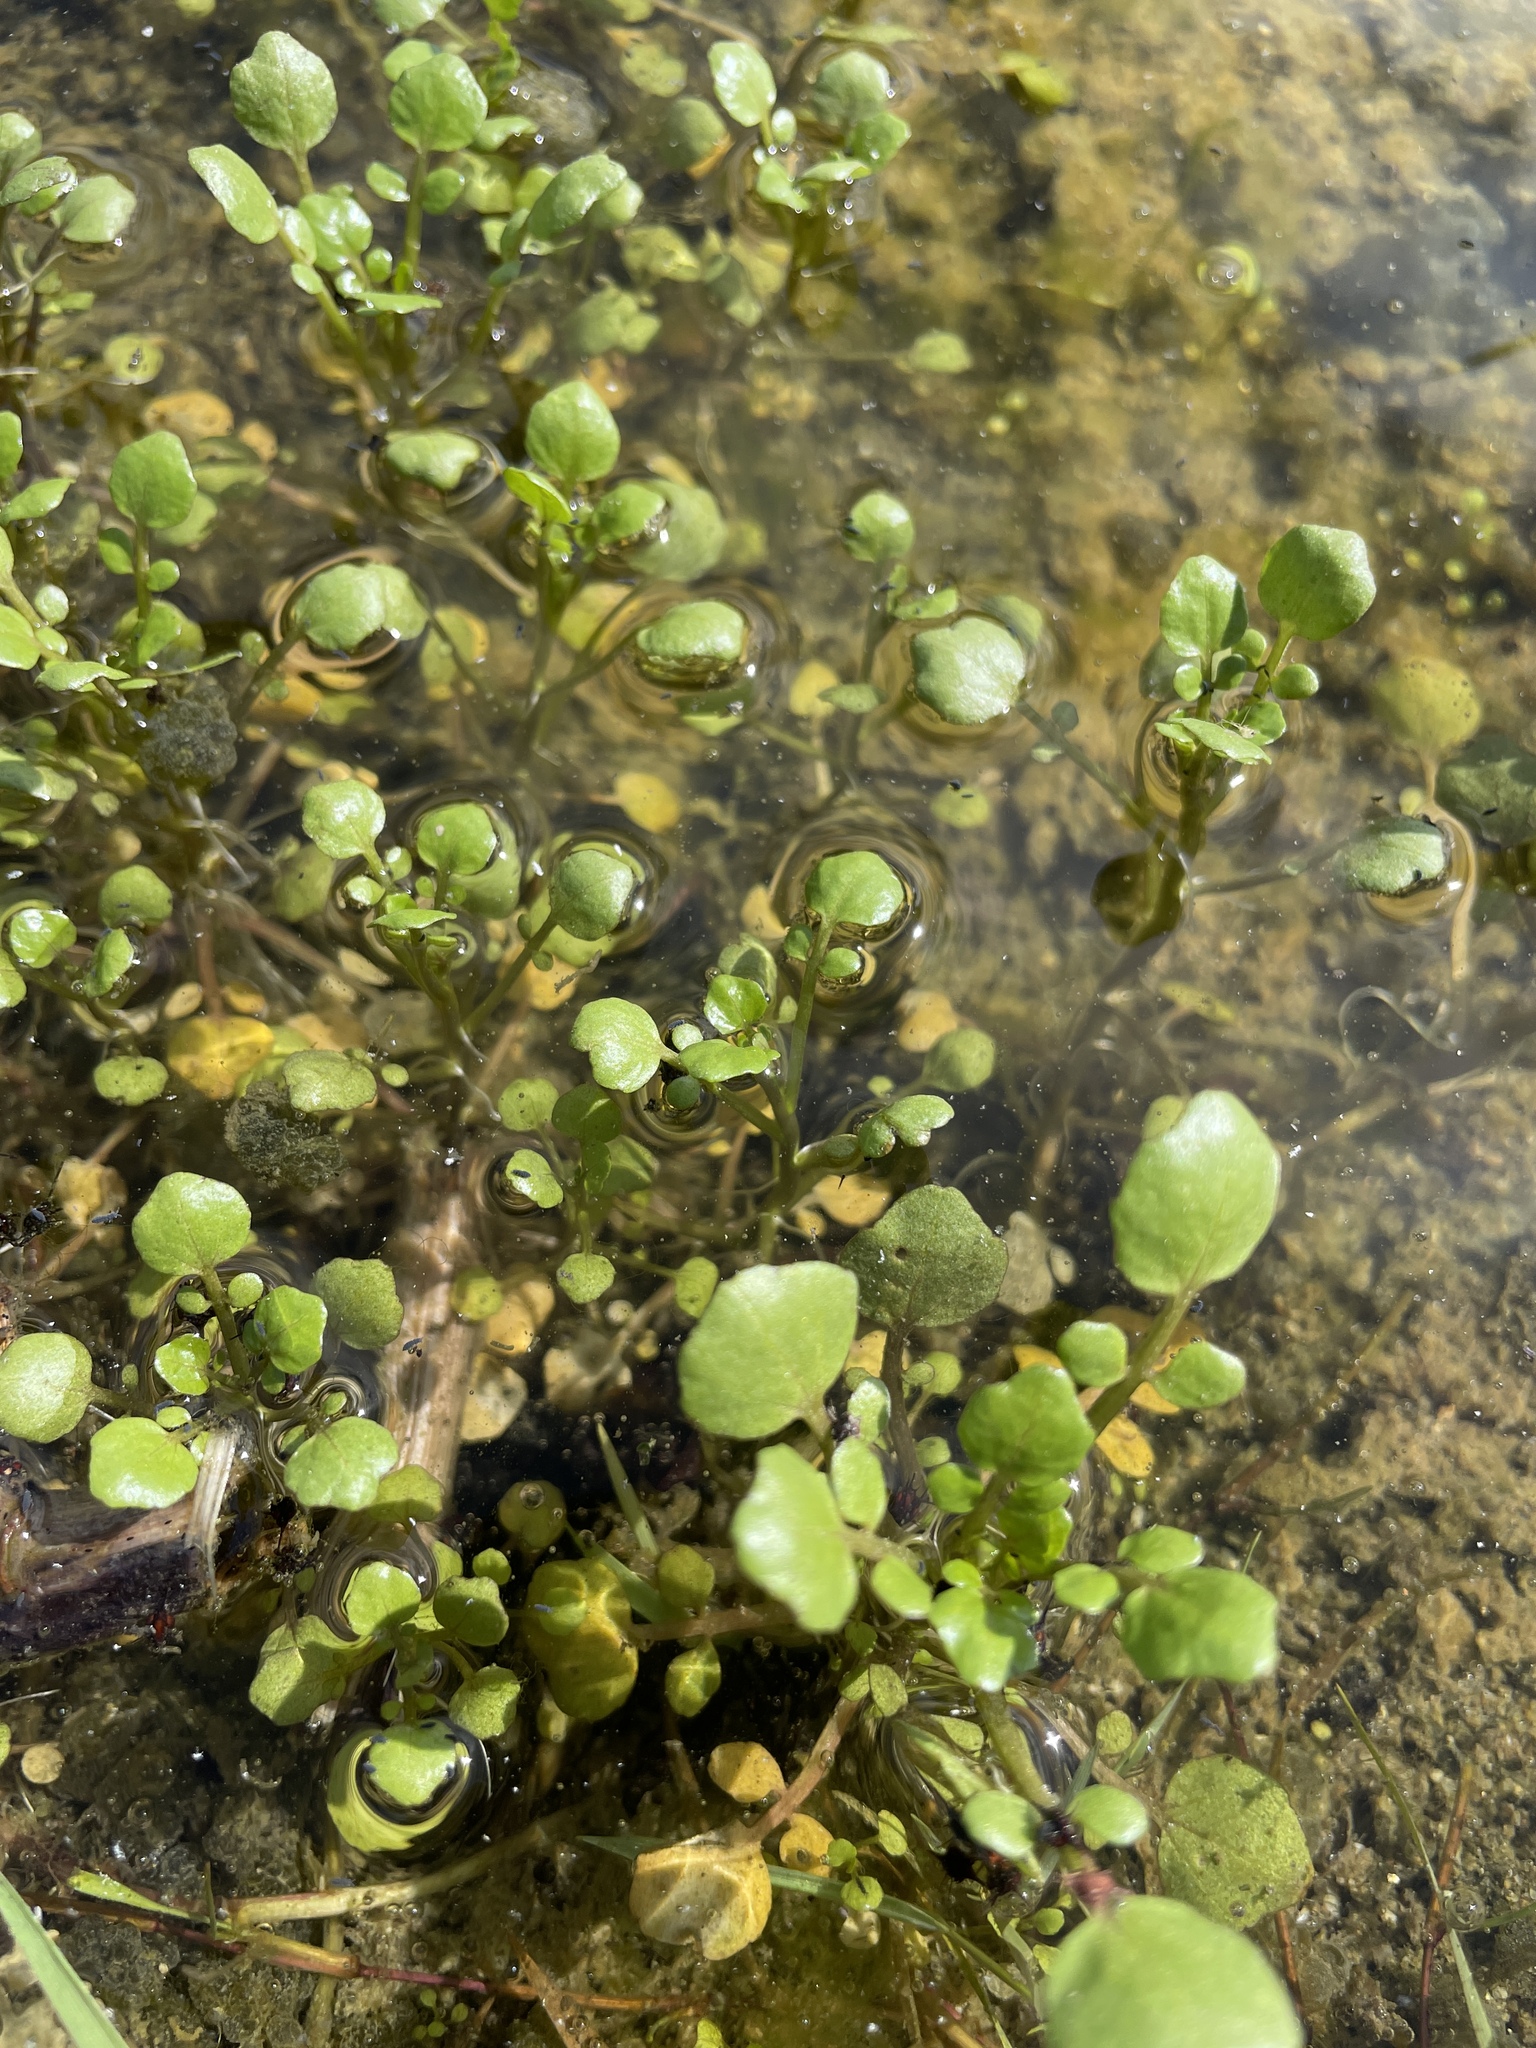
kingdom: Plantae
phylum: Tracheophyta
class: Magnoliopsida
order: Brassicales
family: Brassicaceae
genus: Nasturtium
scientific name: Nasturtium officinale
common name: Watercress
